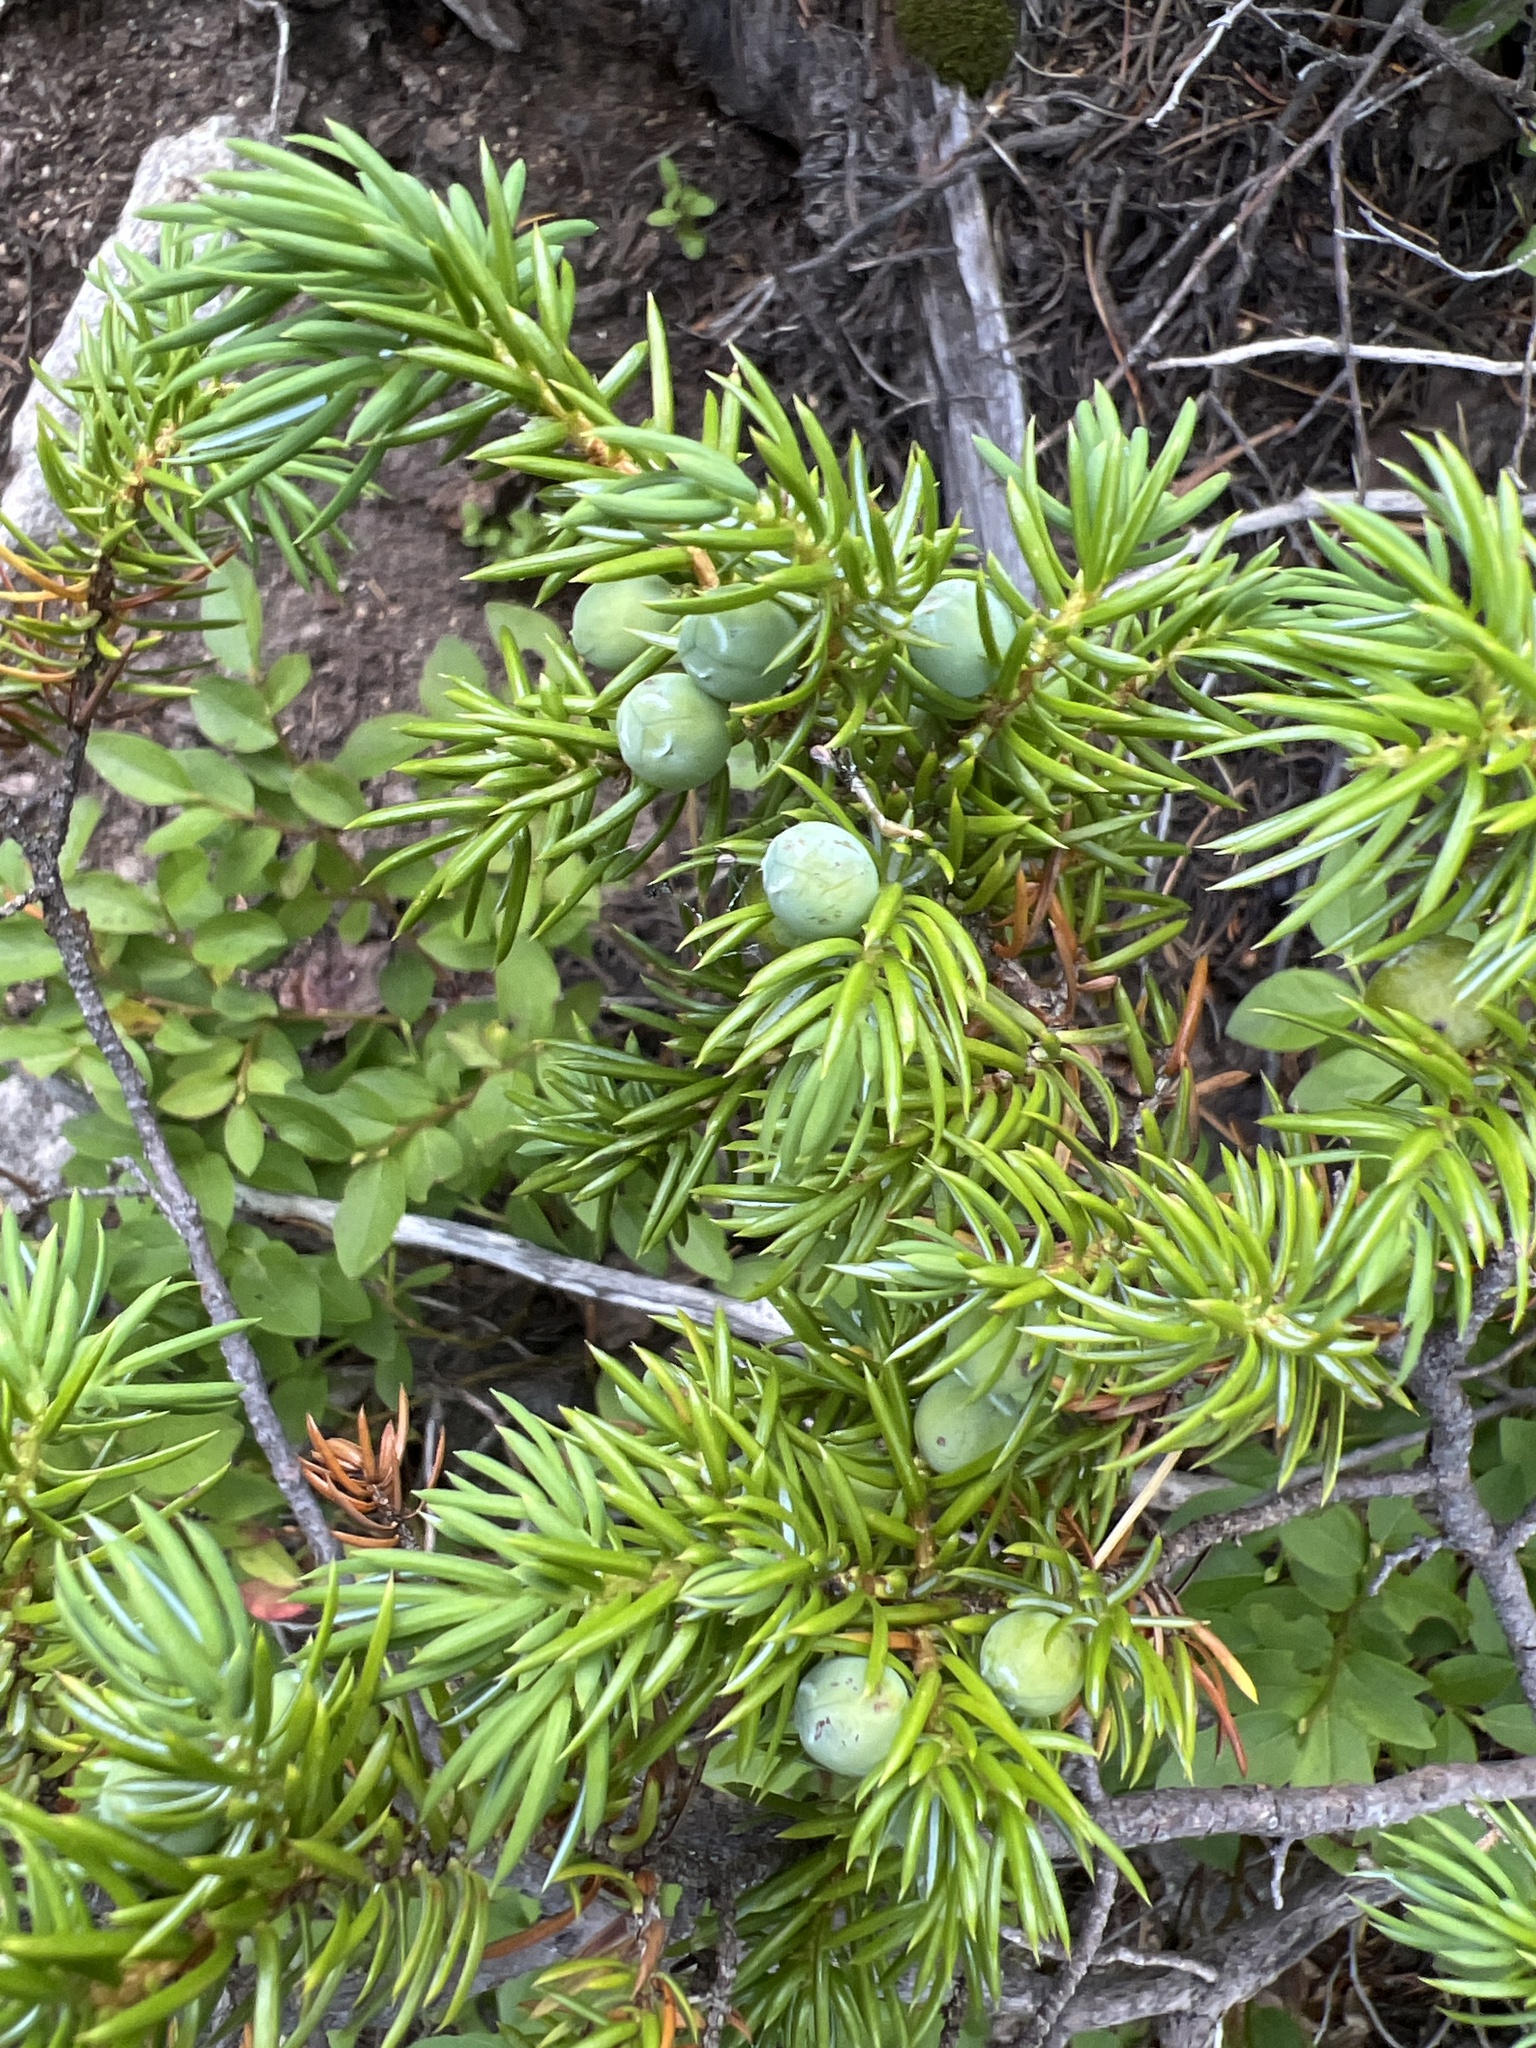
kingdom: Plantae
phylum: Tracheophyta
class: Pinopsida
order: Pinales
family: Cupressaceae
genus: Juniperus
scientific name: Juniperus communis
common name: Common juniper
